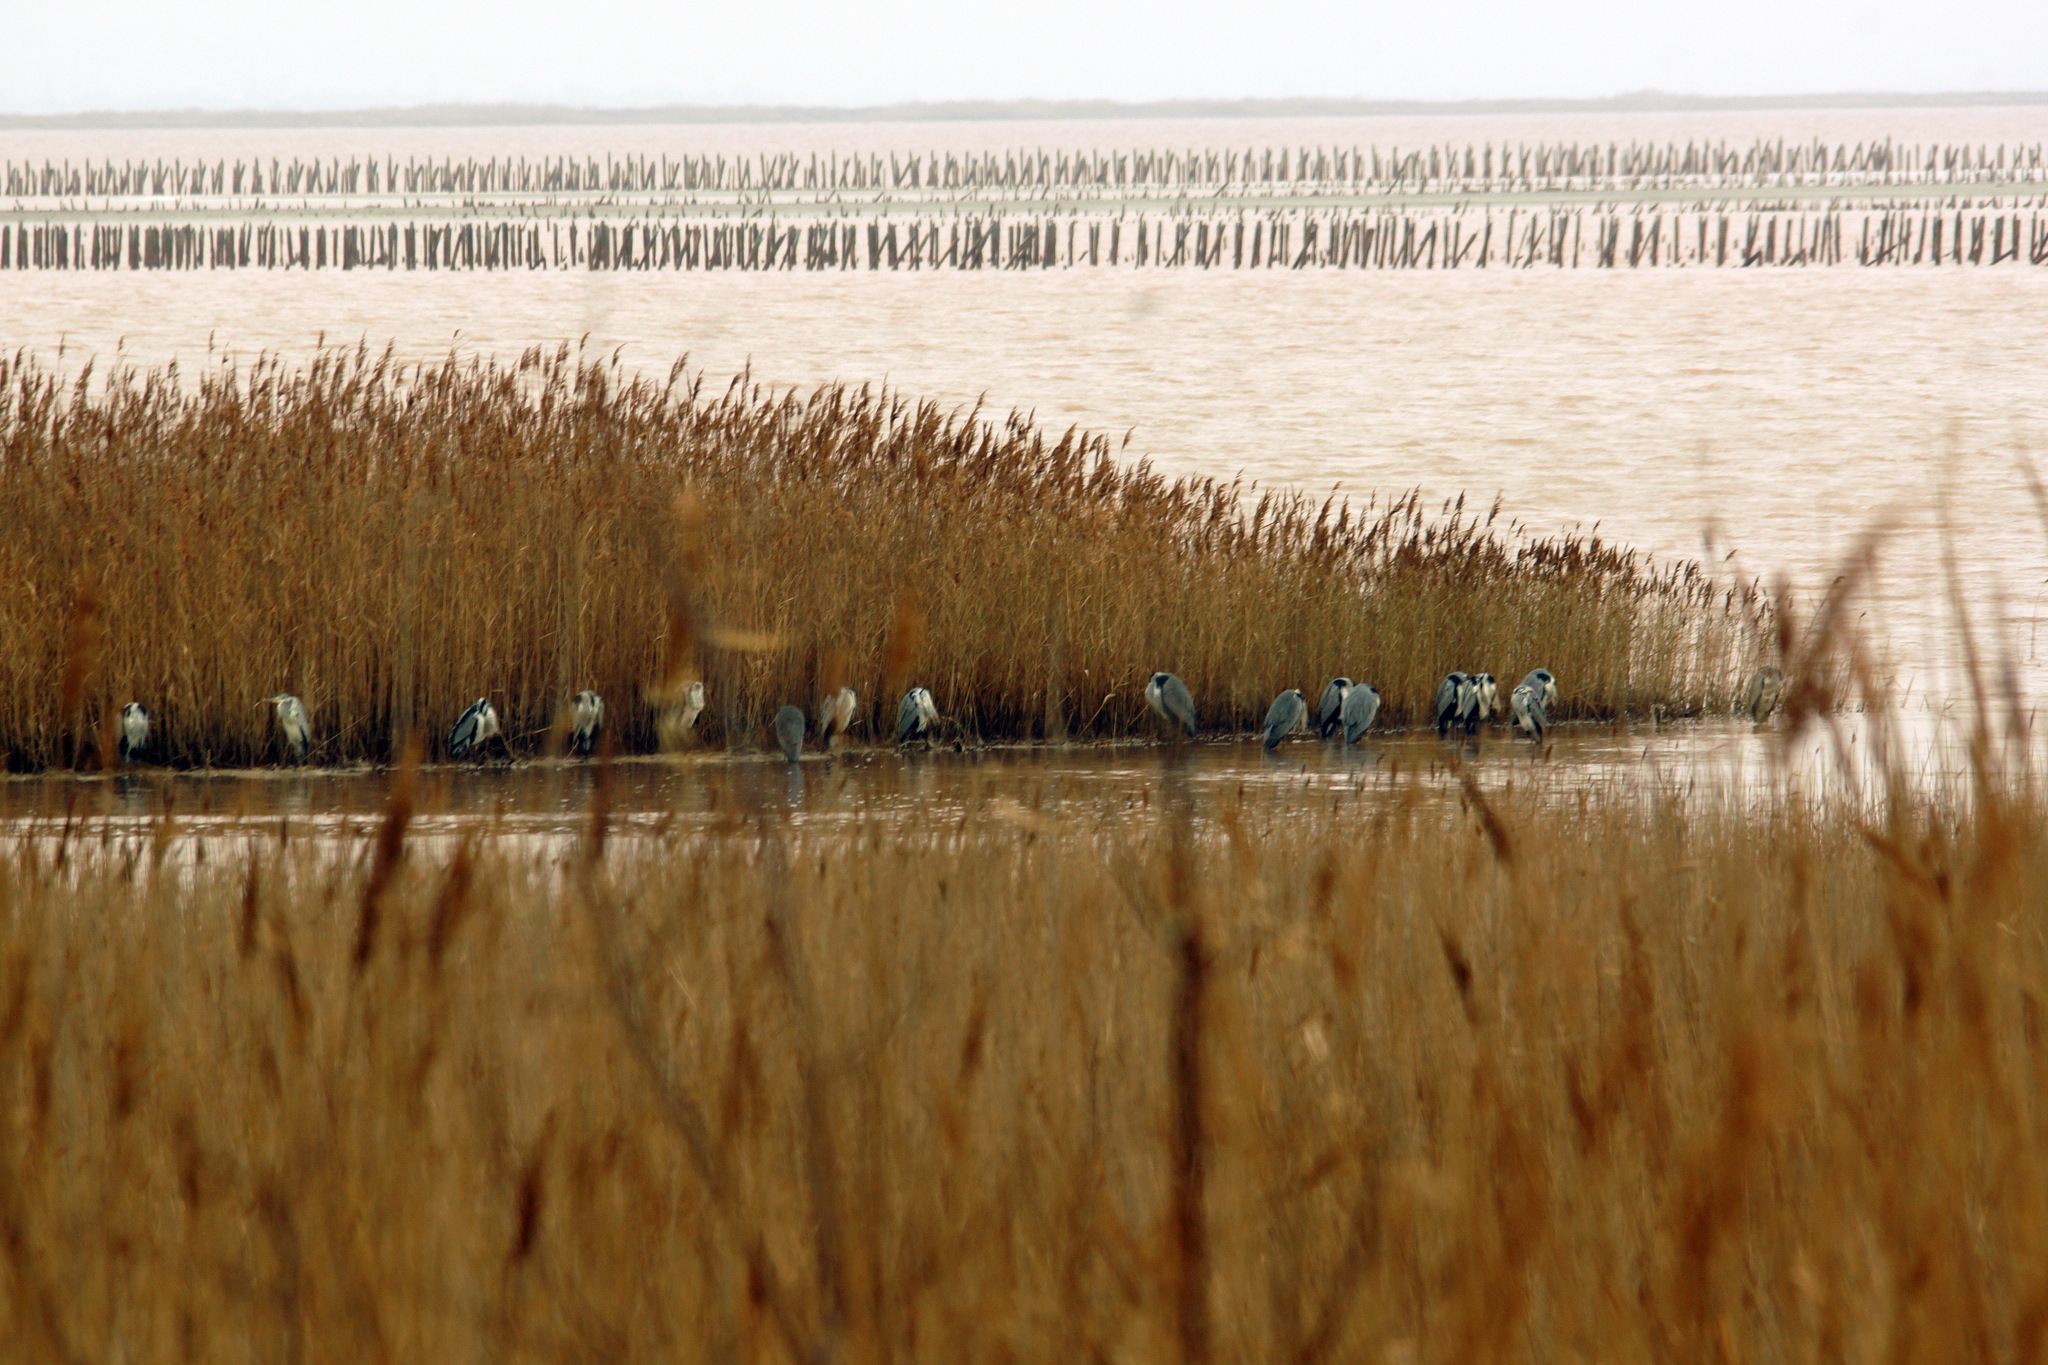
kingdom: Animalia
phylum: Chordata
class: Aves
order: Pelecaniformes
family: Ardeidae
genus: Ardea
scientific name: Ardea cinerea
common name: Grey heron
